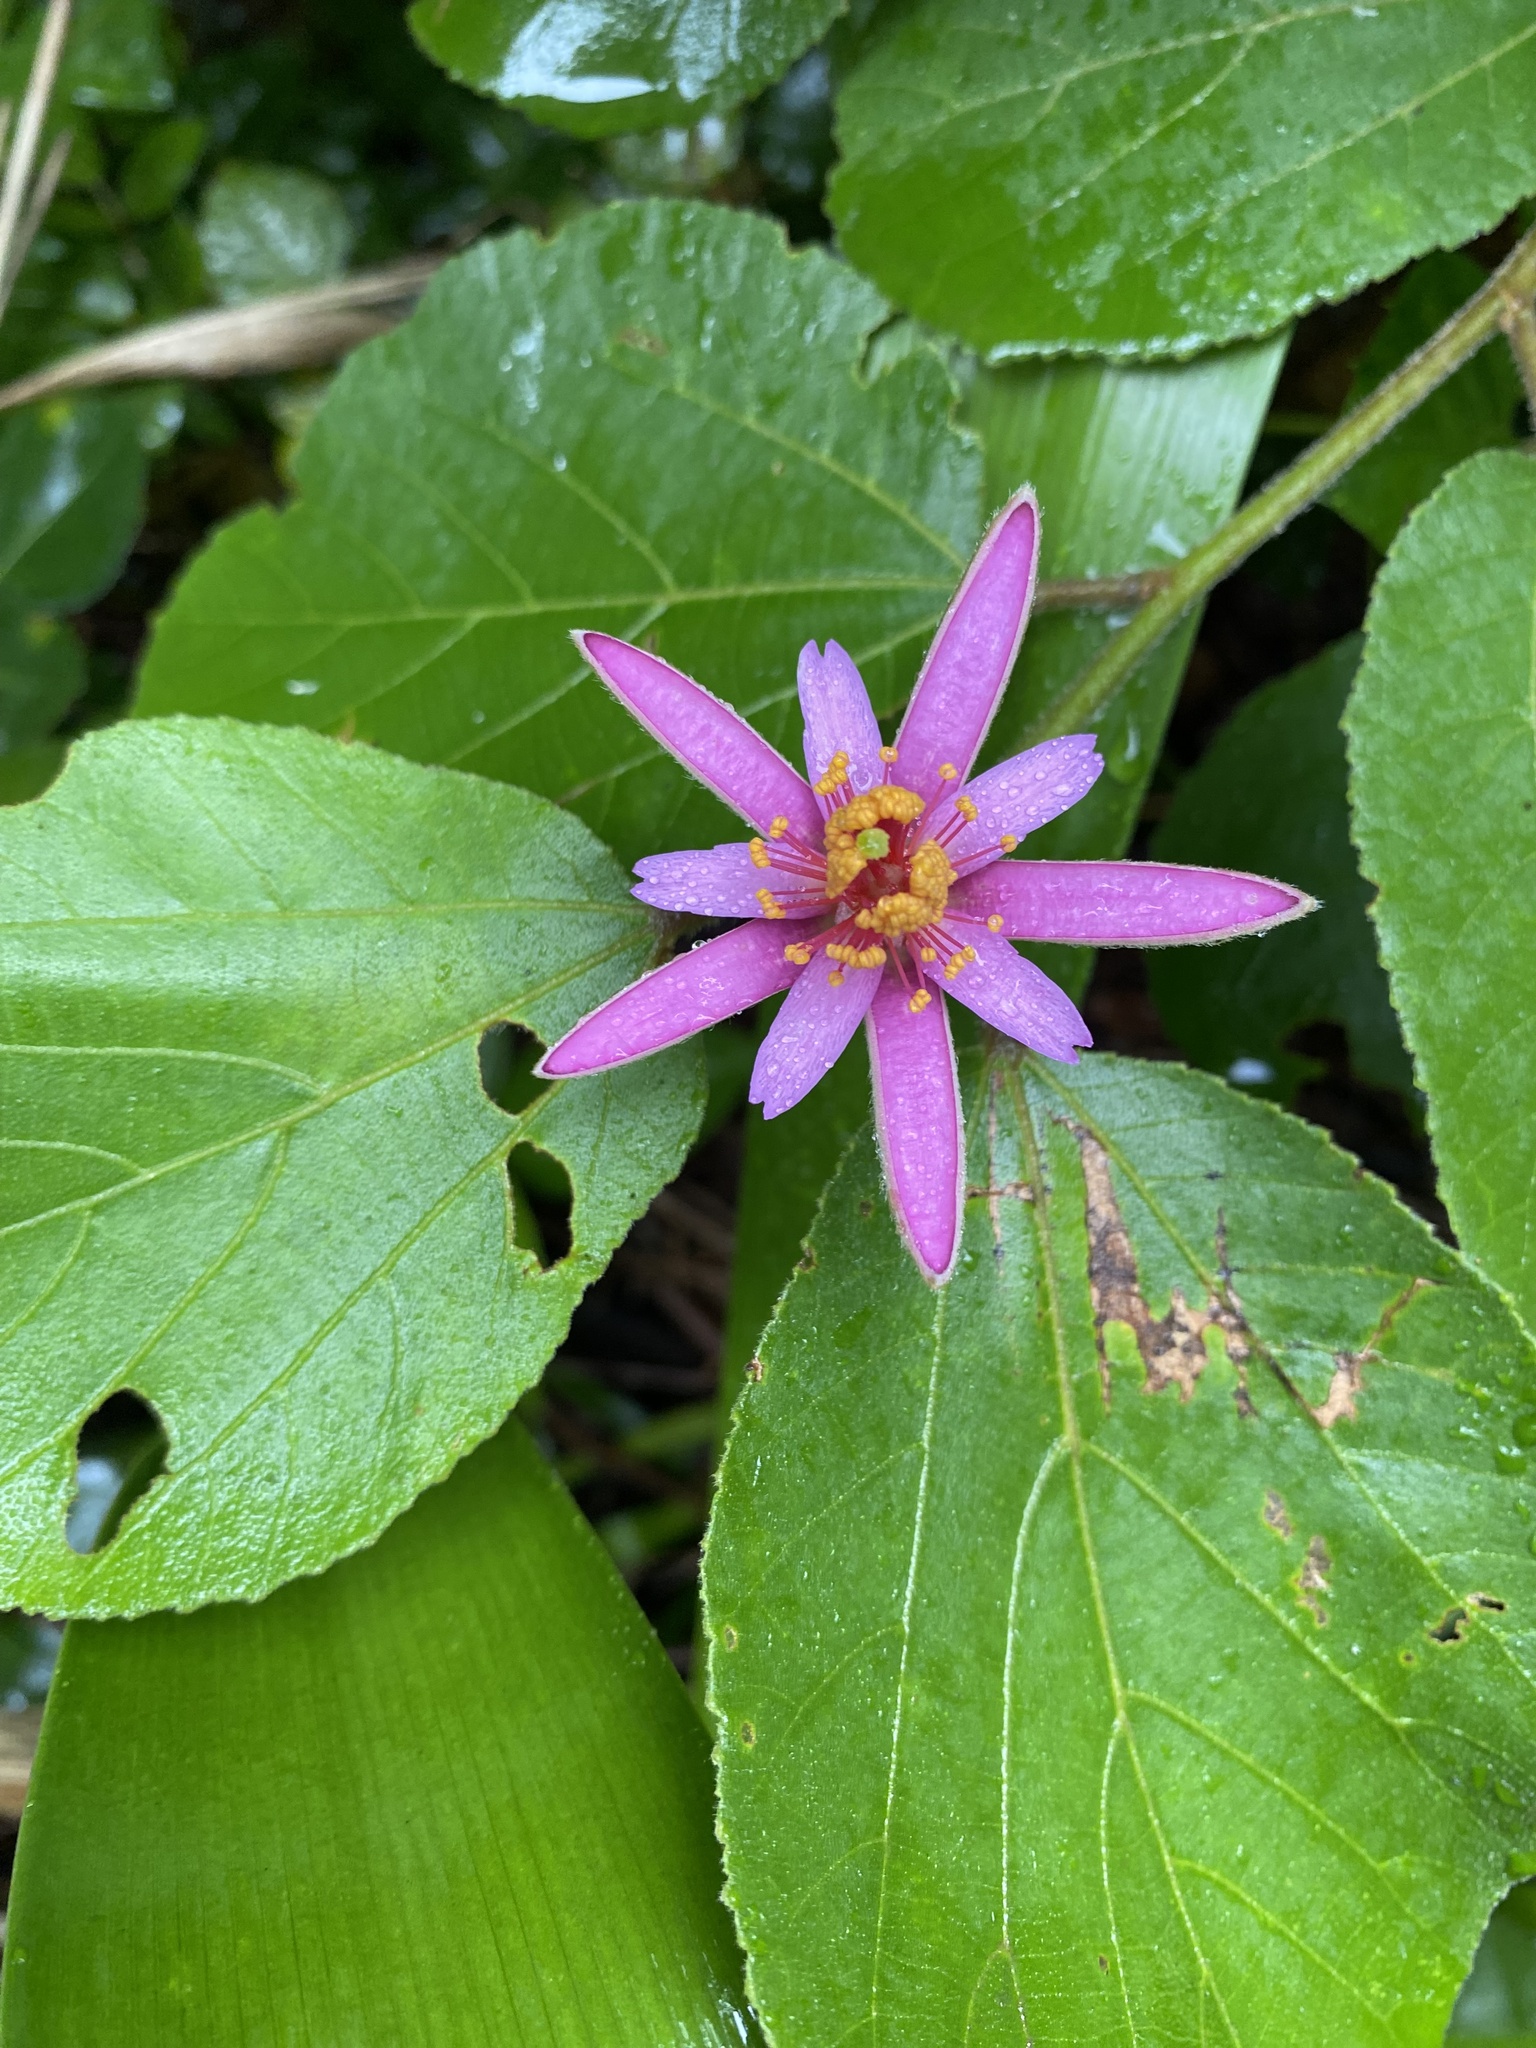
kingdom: Plantae
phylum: Tracheophyta
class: Magnoliopsida
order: Malvales
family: Malvaceae
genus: Grewia
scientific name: Grewia occidentalis
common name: Crossberry
